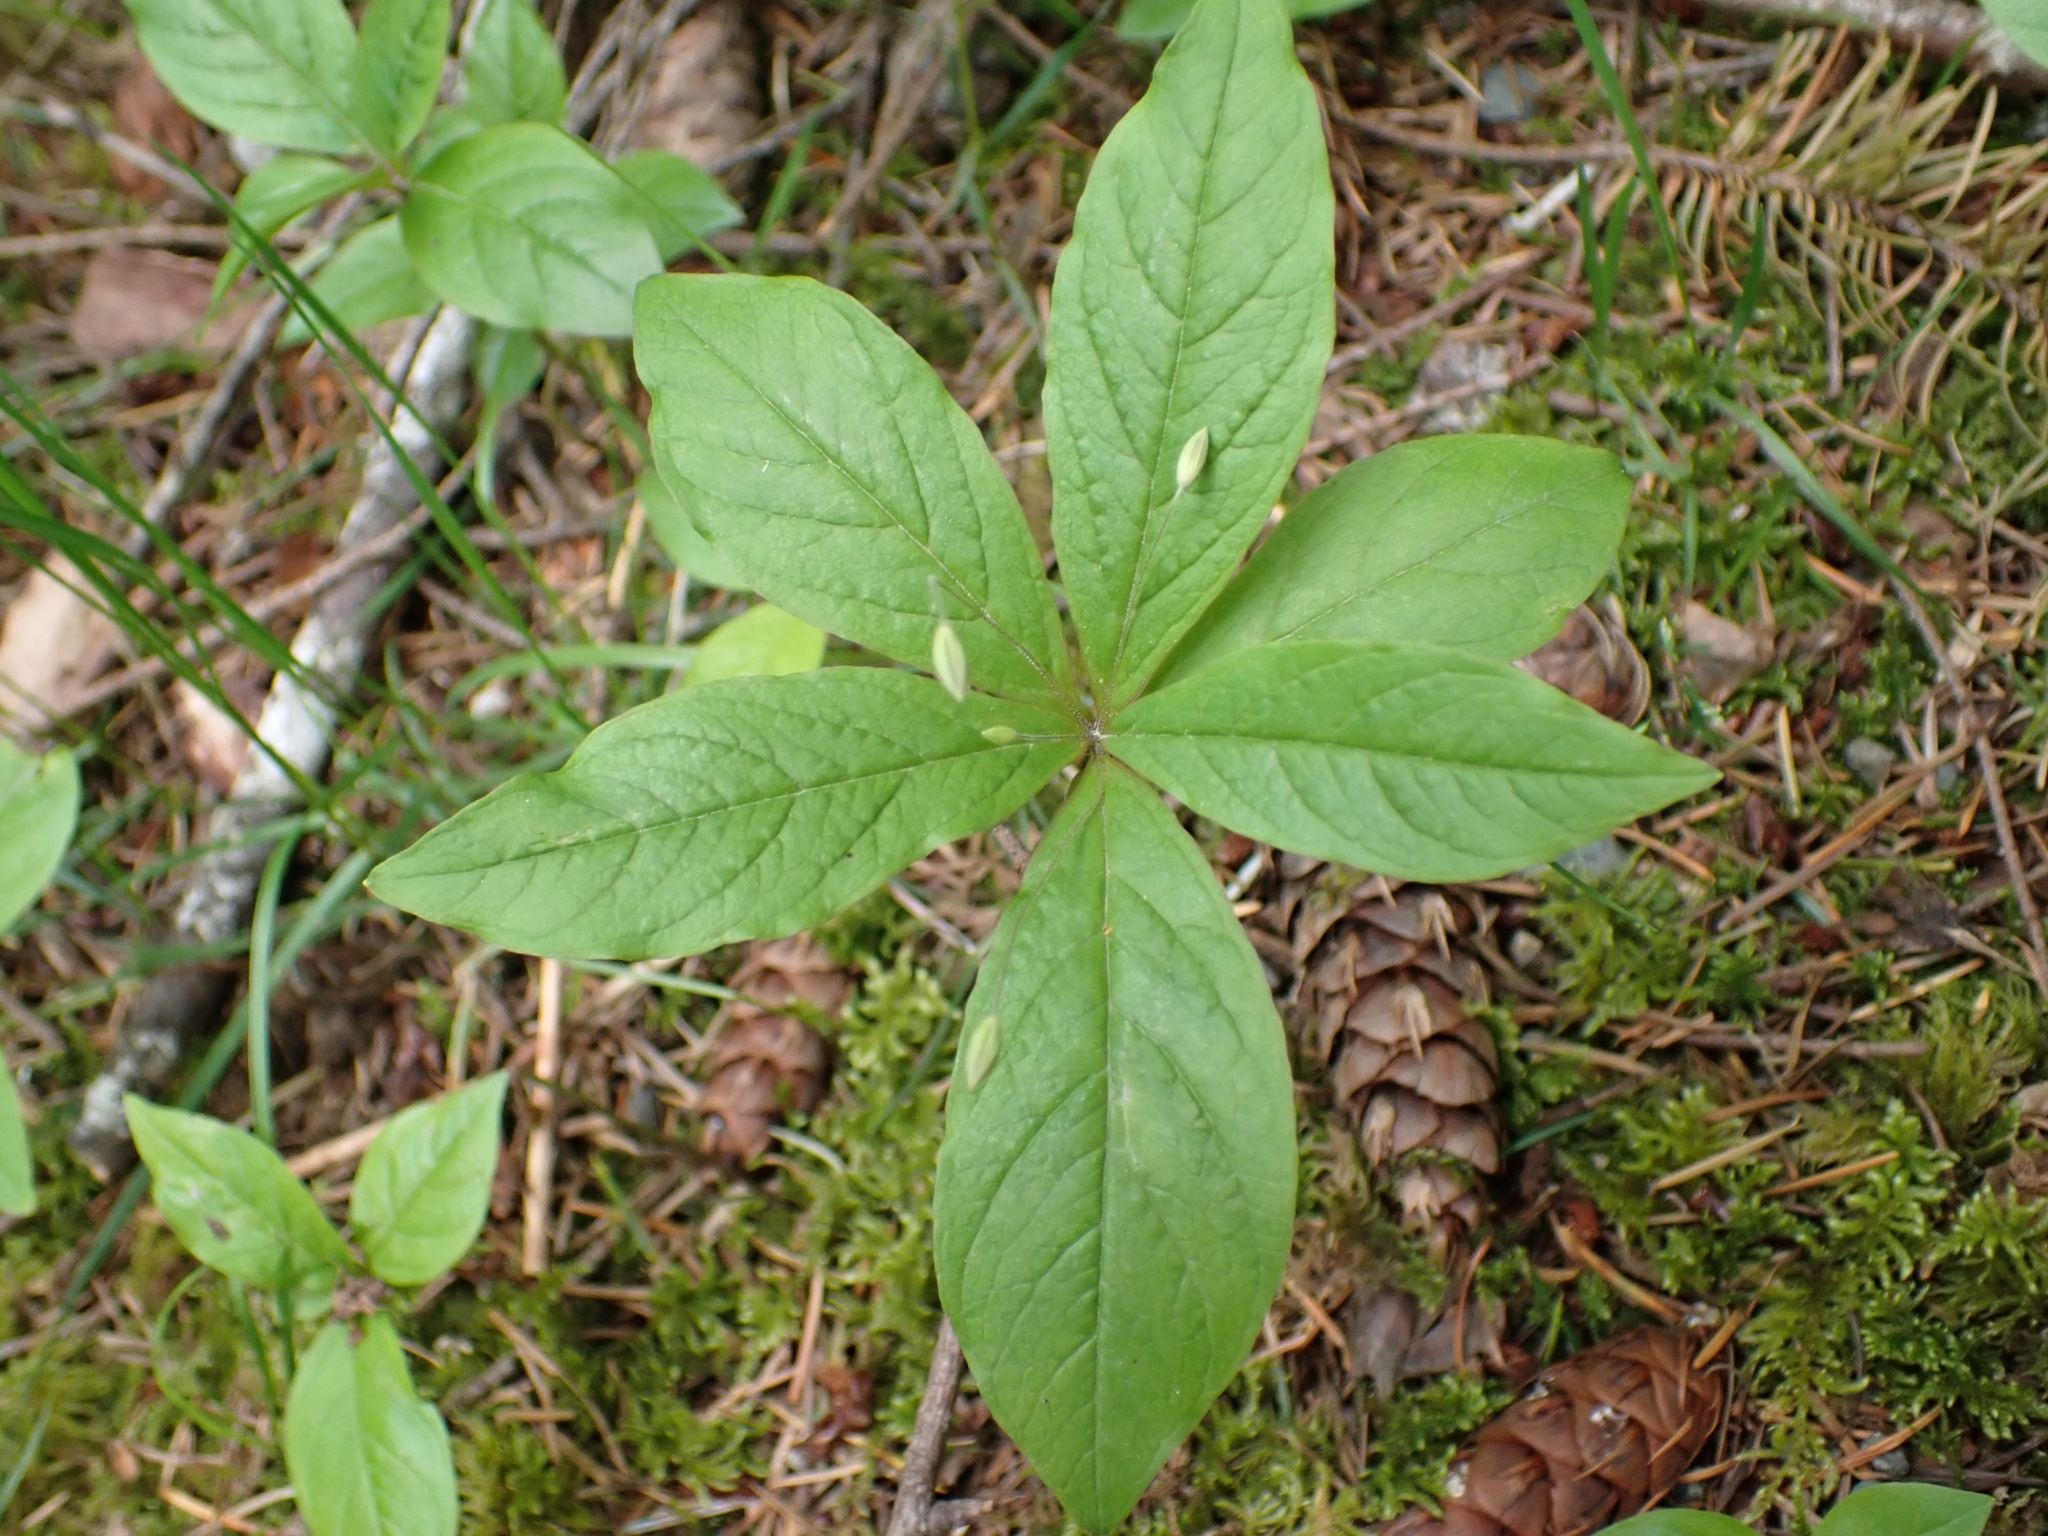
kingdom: Plantae
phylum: Tracheophyta
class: Magnoliopsida
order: Ericales
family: Primulaceae
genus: Lysimachia
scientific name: Lysimachia latifolia
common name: Pacific starflower
